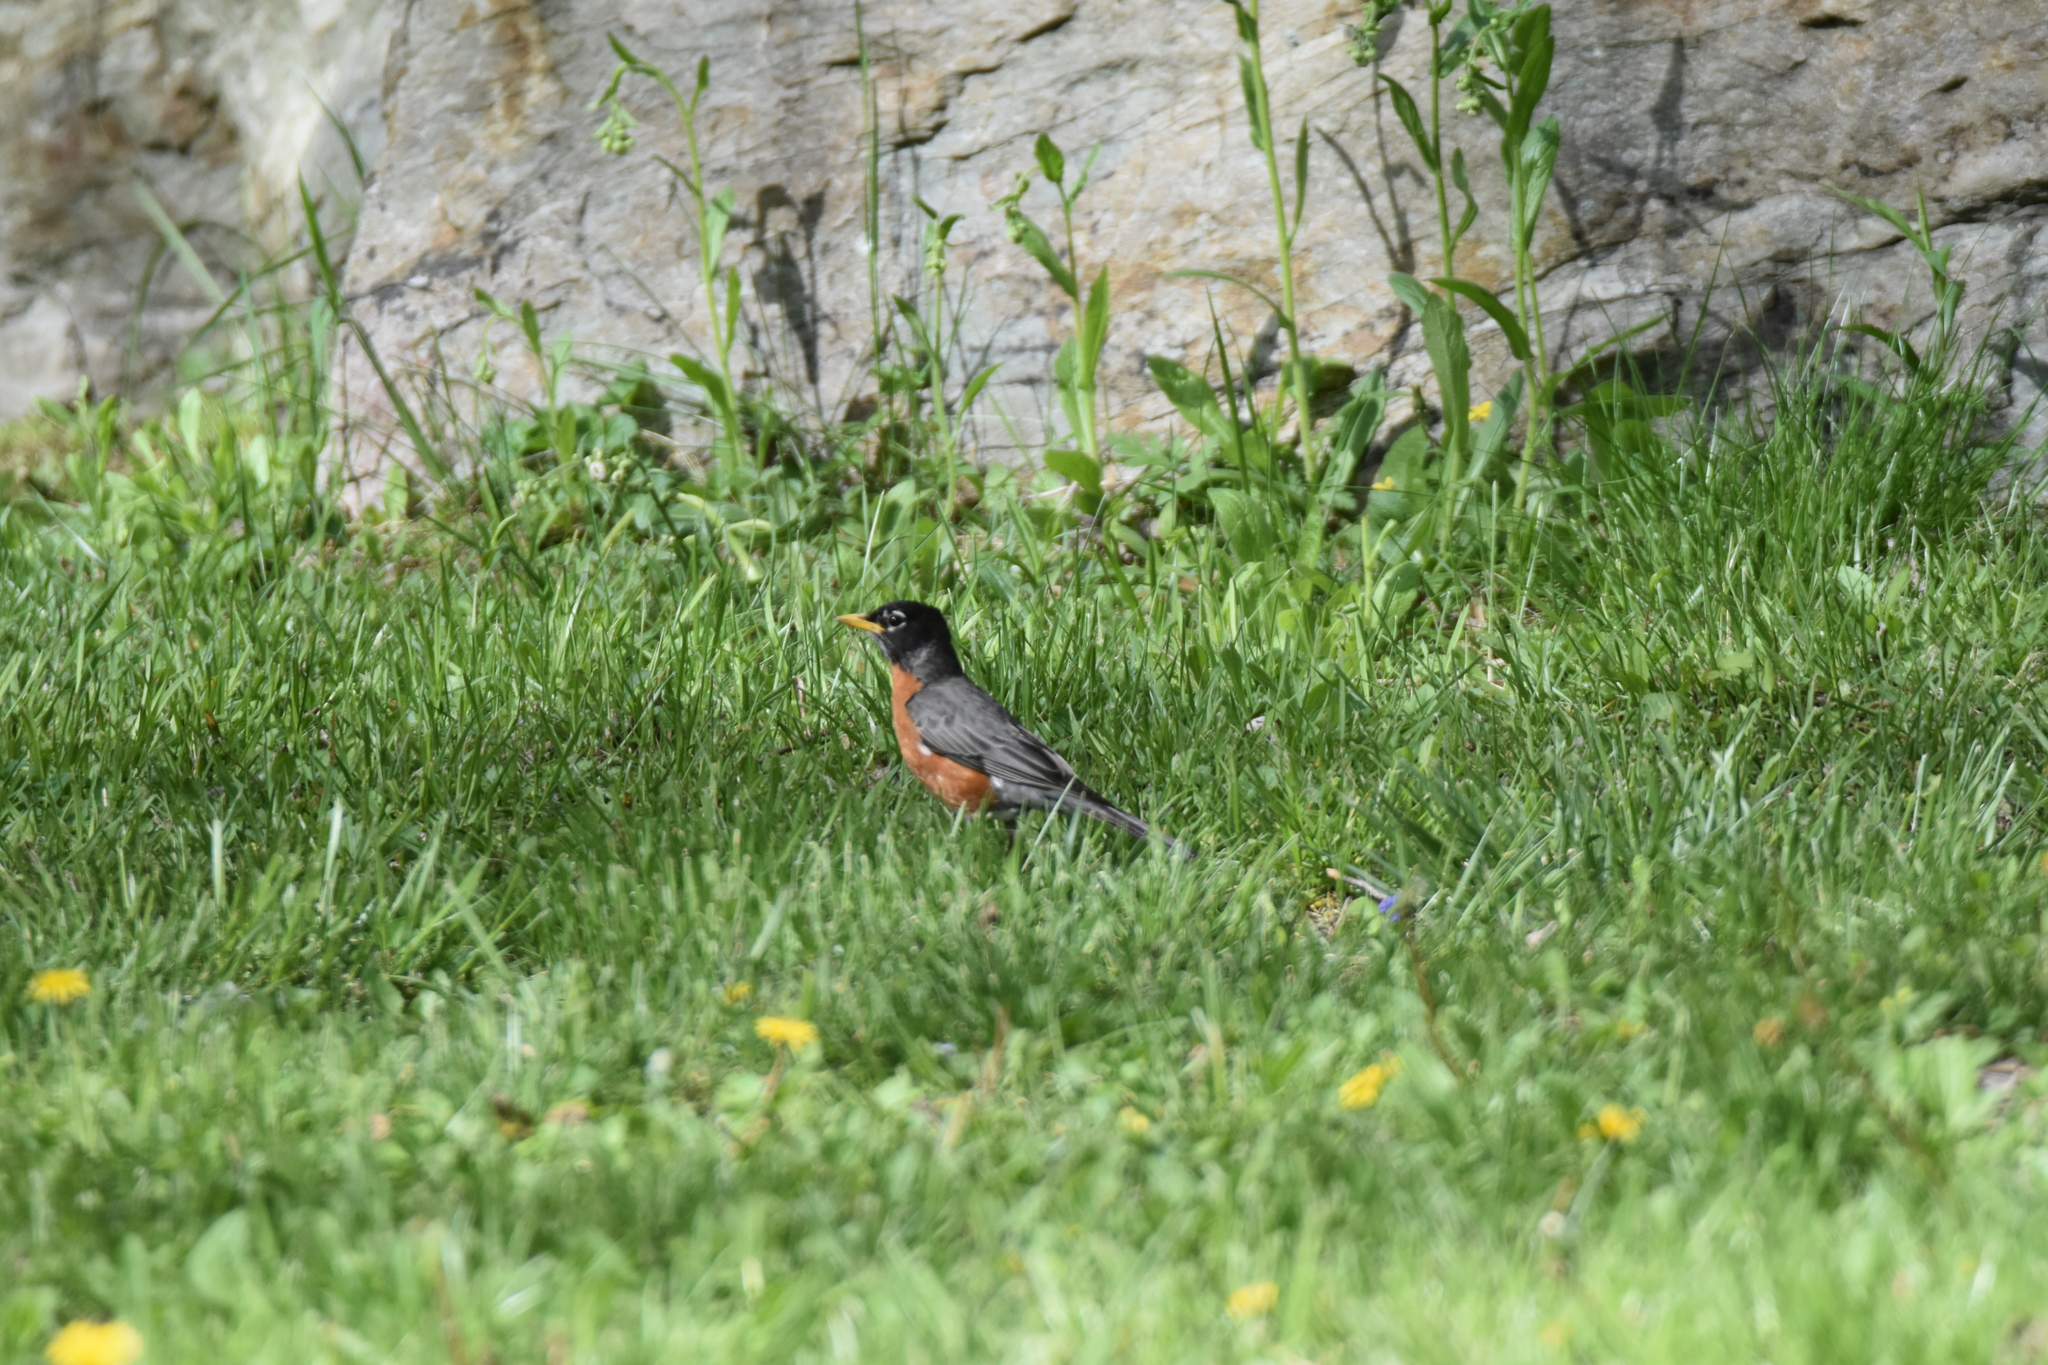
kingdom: Animalia
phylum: Chordata
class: Aves
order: Passeriformes
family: Turdidae
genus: Turdus
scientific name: Turdus migratorius
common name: American robin
